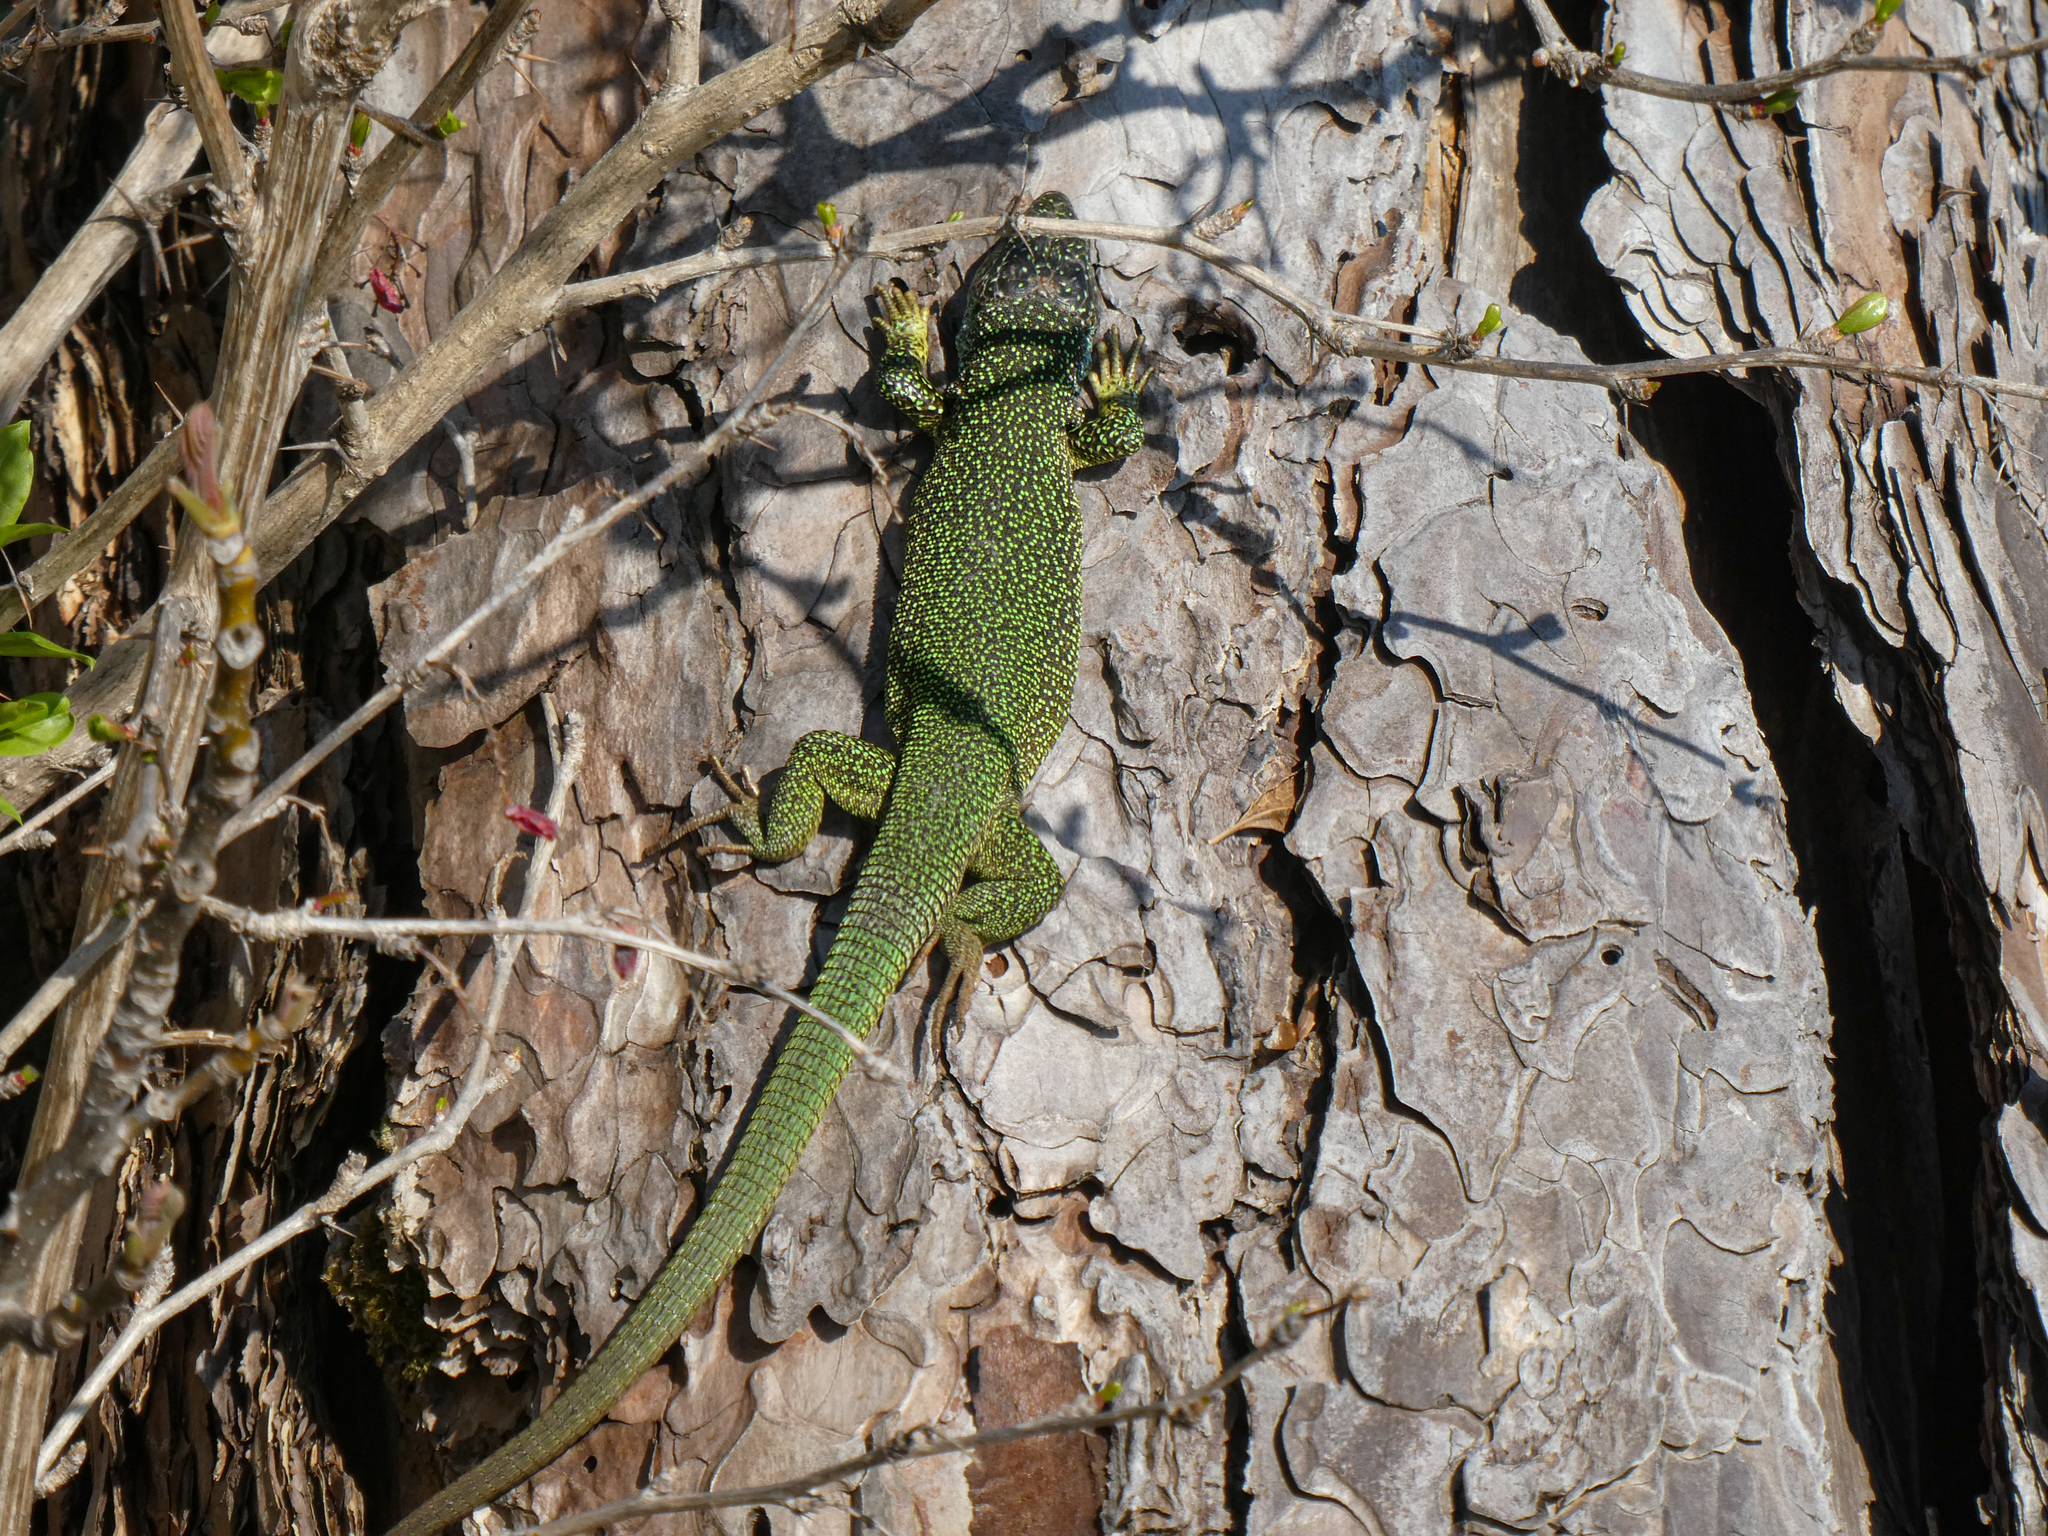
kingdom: Animalia
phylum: Chordata
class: Squamata
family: Lacertidae
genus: Lacerta
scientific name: Lacerta viridis
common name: European green lizard
